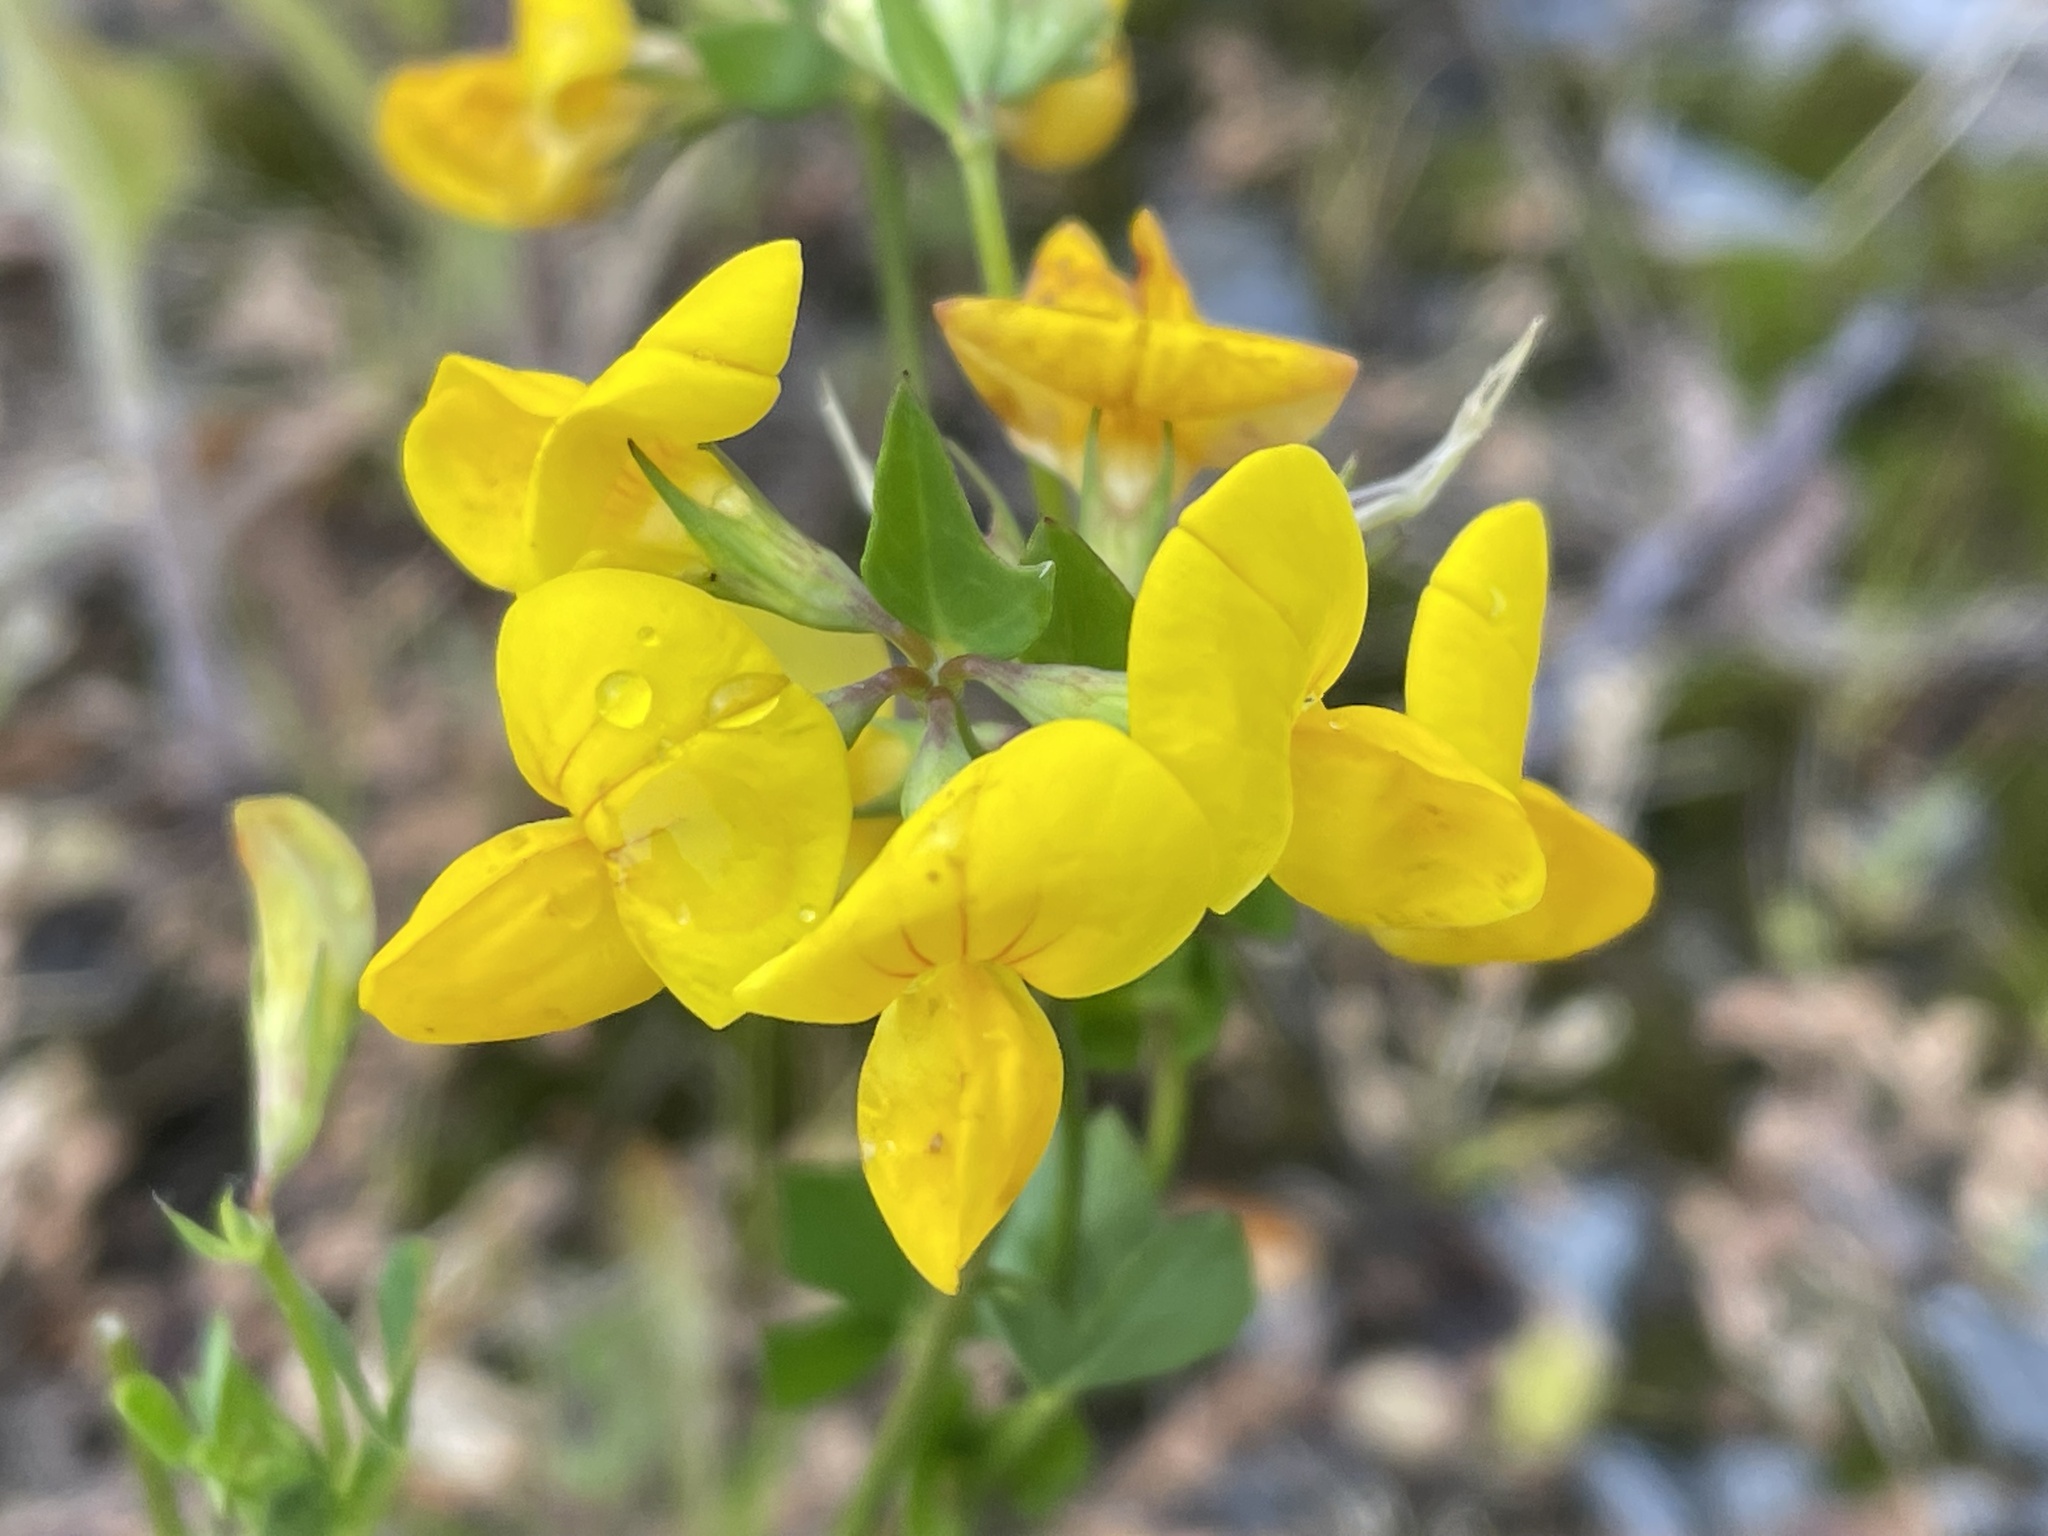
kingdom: Plantae
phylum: Tracheophyta
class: Magnoliopsida
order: Fabales
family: Fabaceae
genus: Lotus
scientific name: Lotus corniculatus
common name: Common bird's-foot-trefoil
